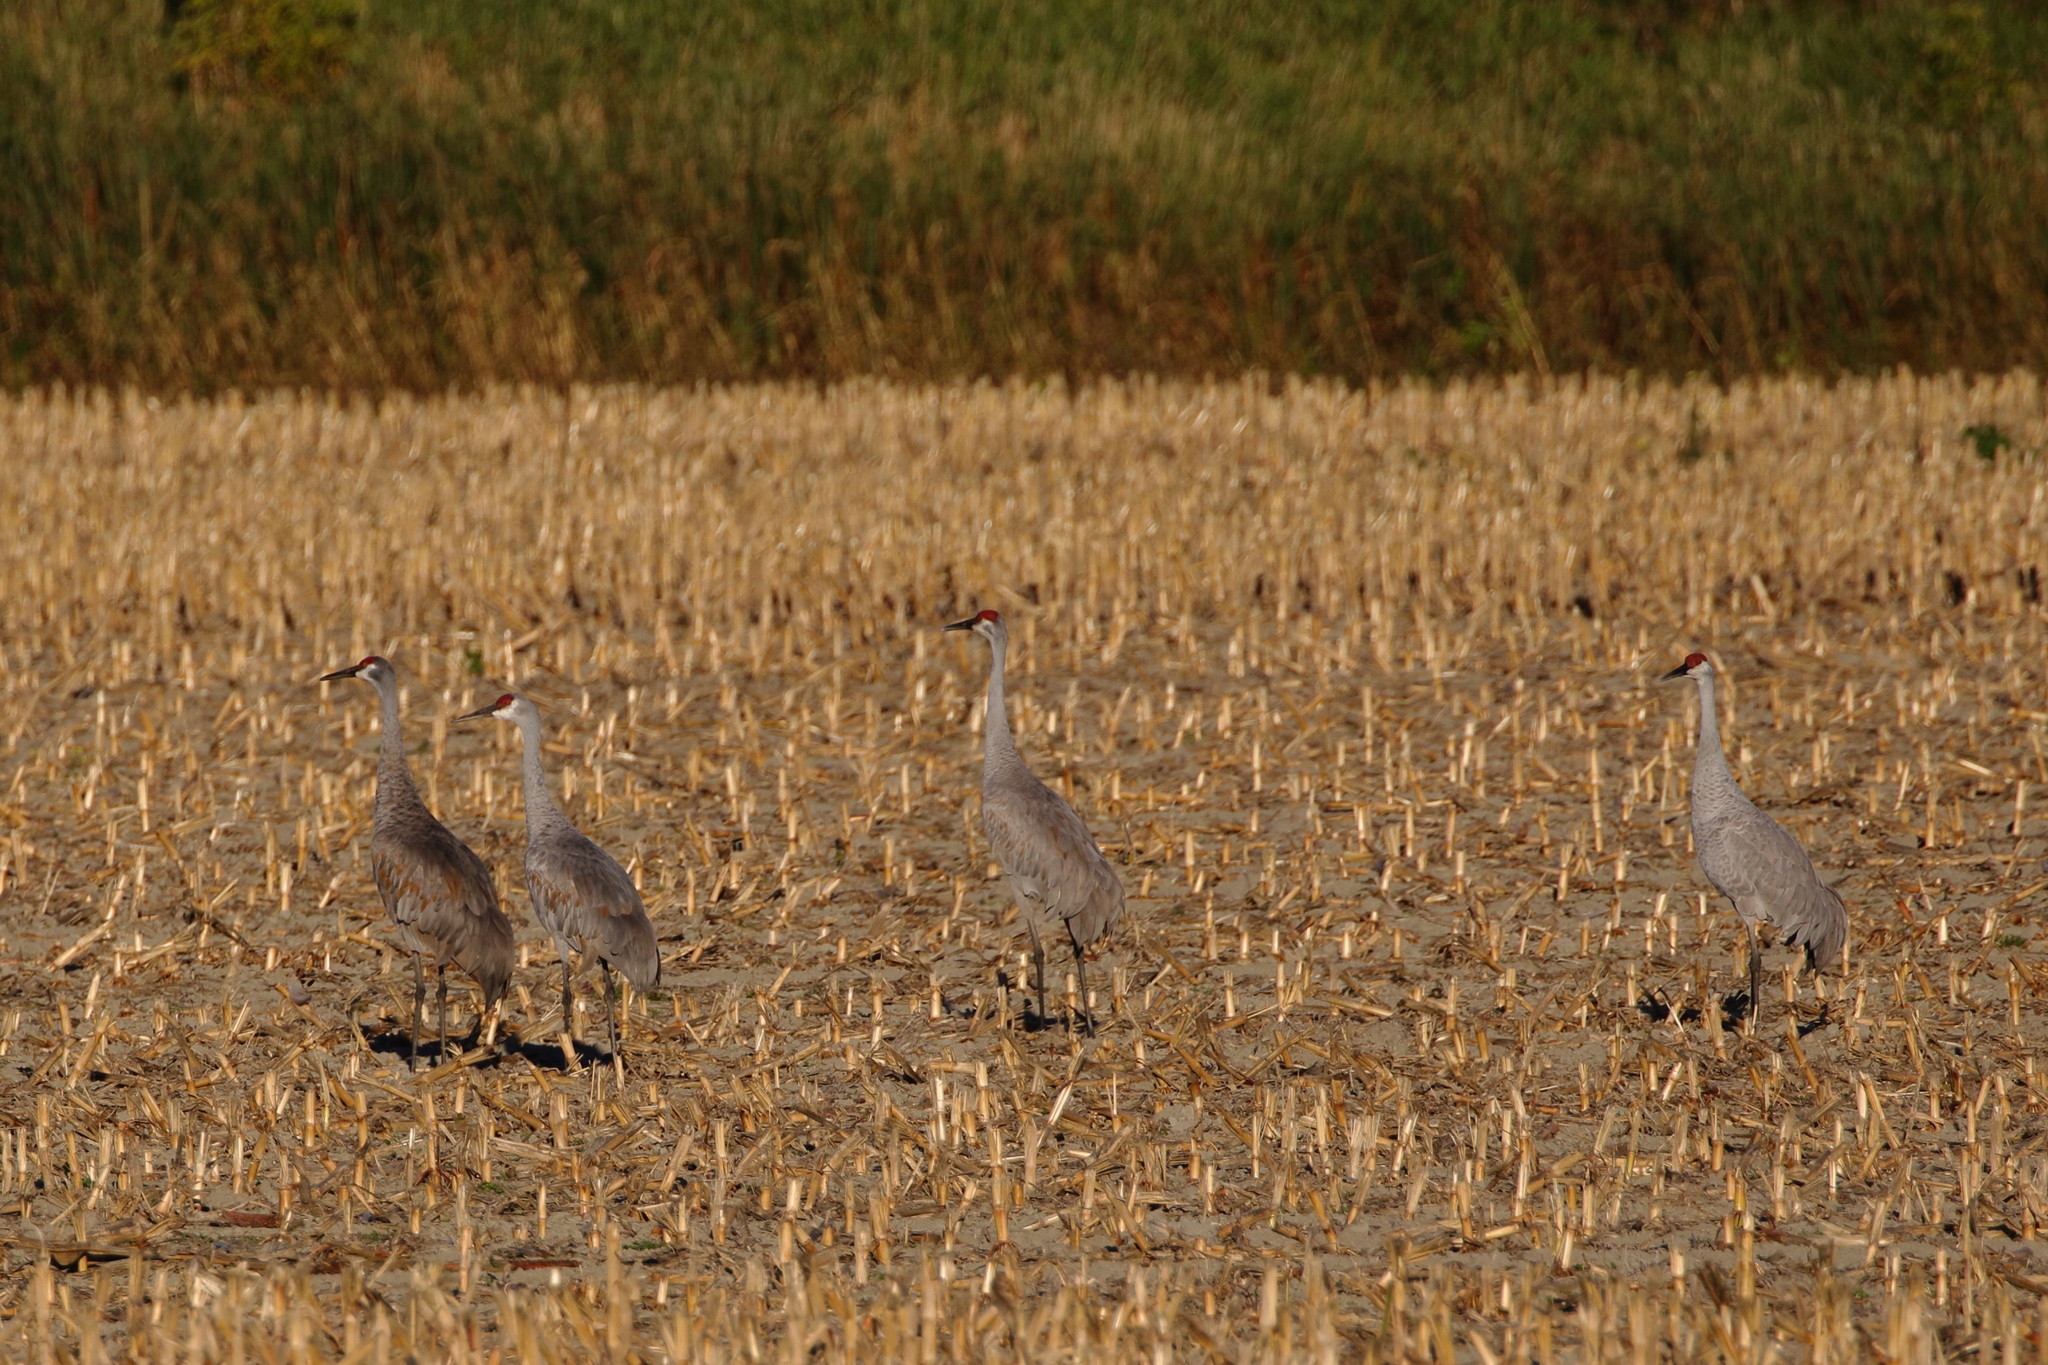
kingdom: Animalia
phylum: Chordata
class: Aves
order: Gruiformes
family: Gruidae
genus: Grus
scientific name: Grus canadensis
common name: Sandhill crane
